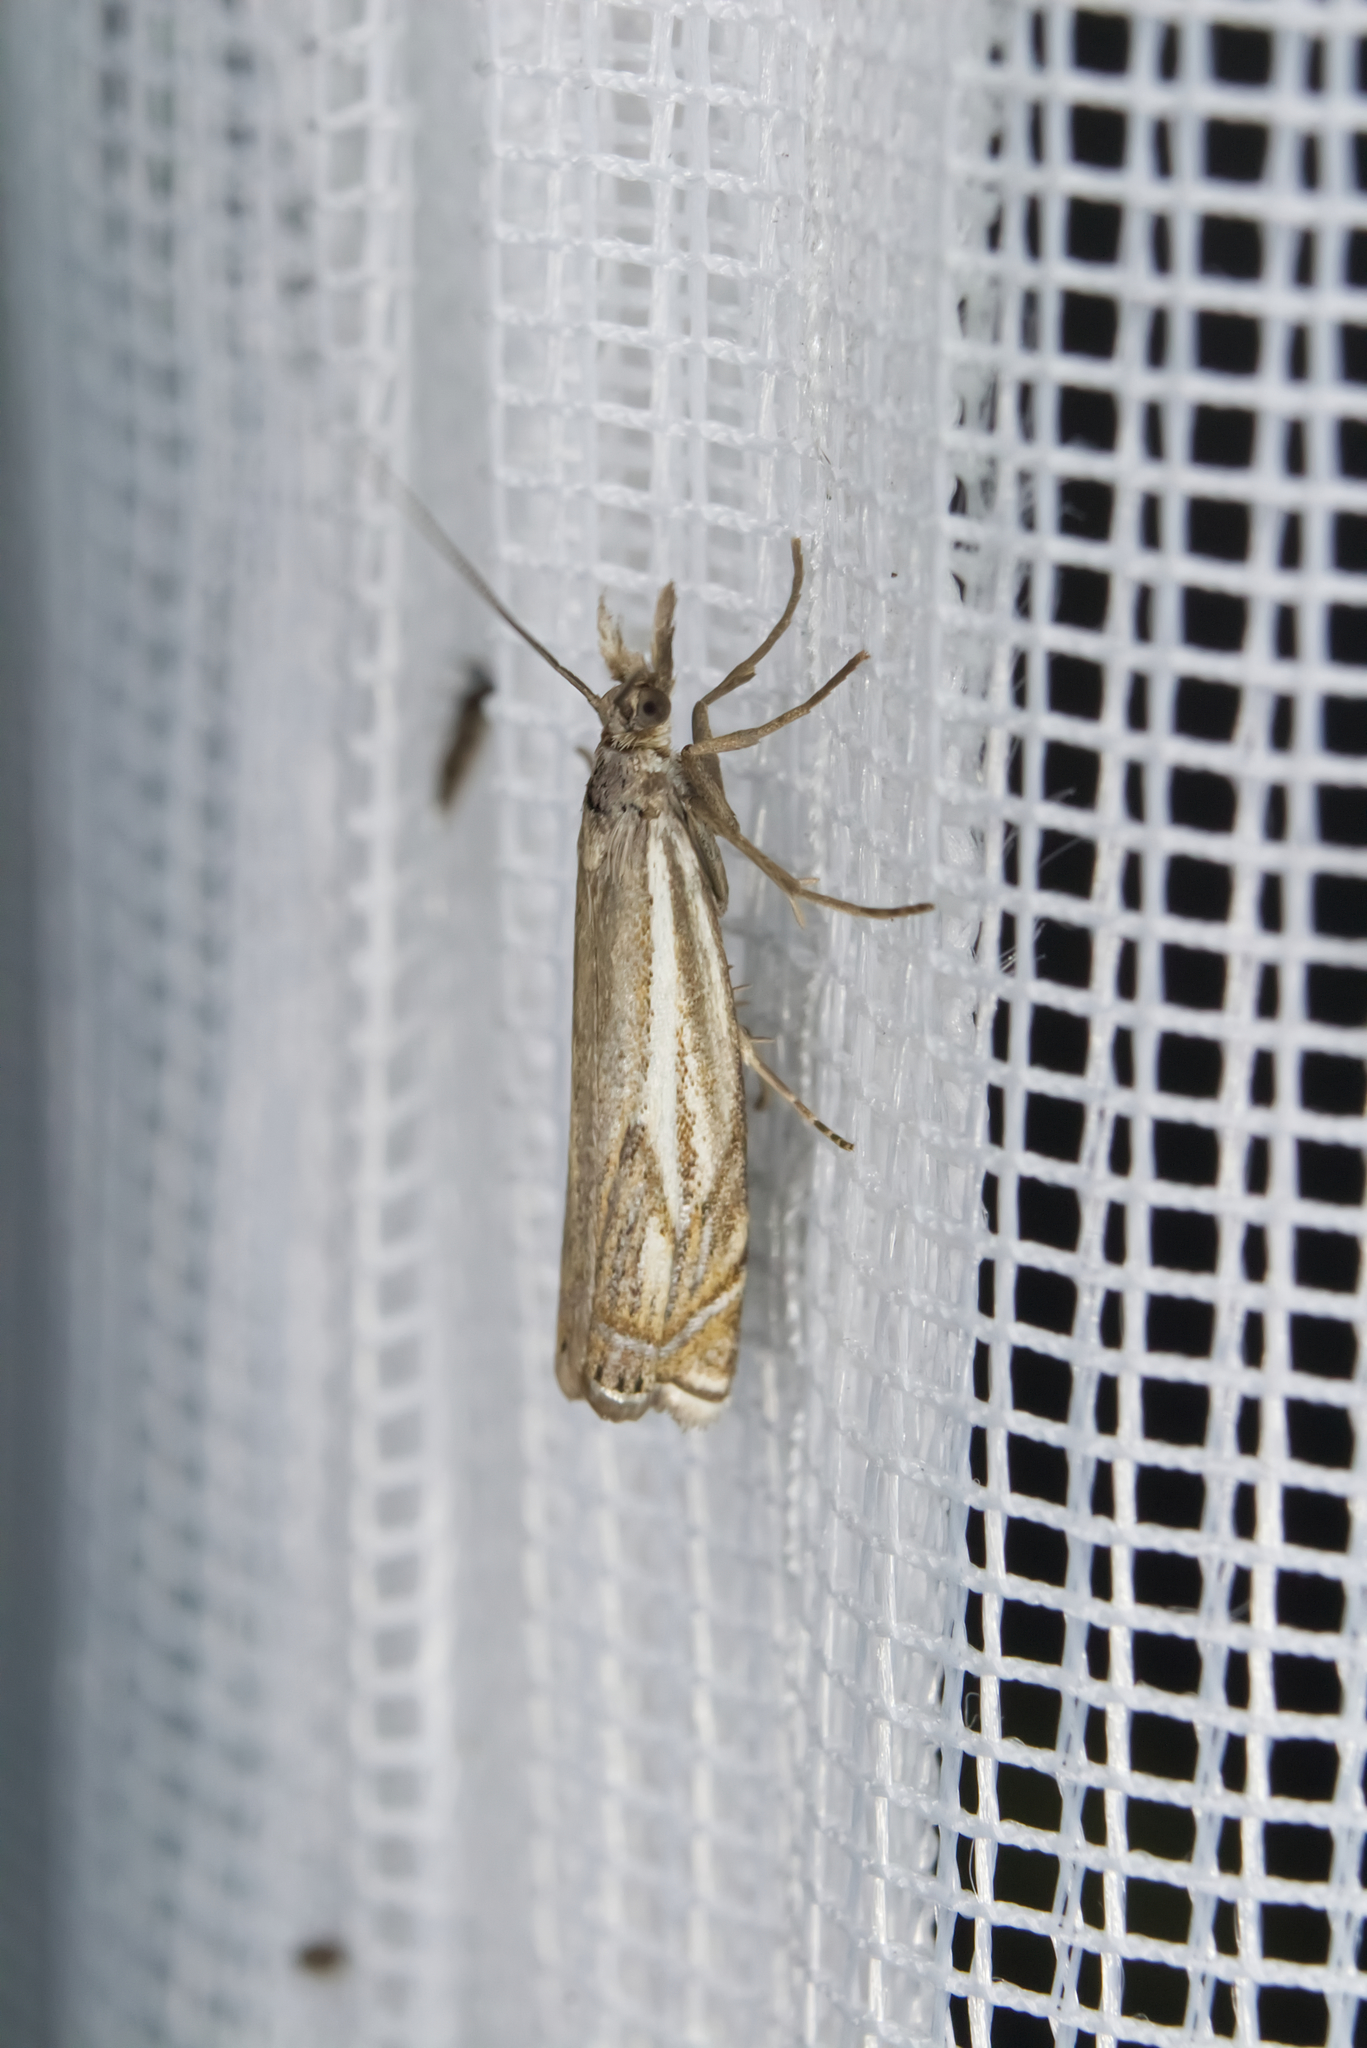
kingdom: Animalia
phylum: Arthropoda
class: Insecta
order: Lepidoptera
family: Crambidae
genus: Crambus
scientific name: Crambus nemorella
